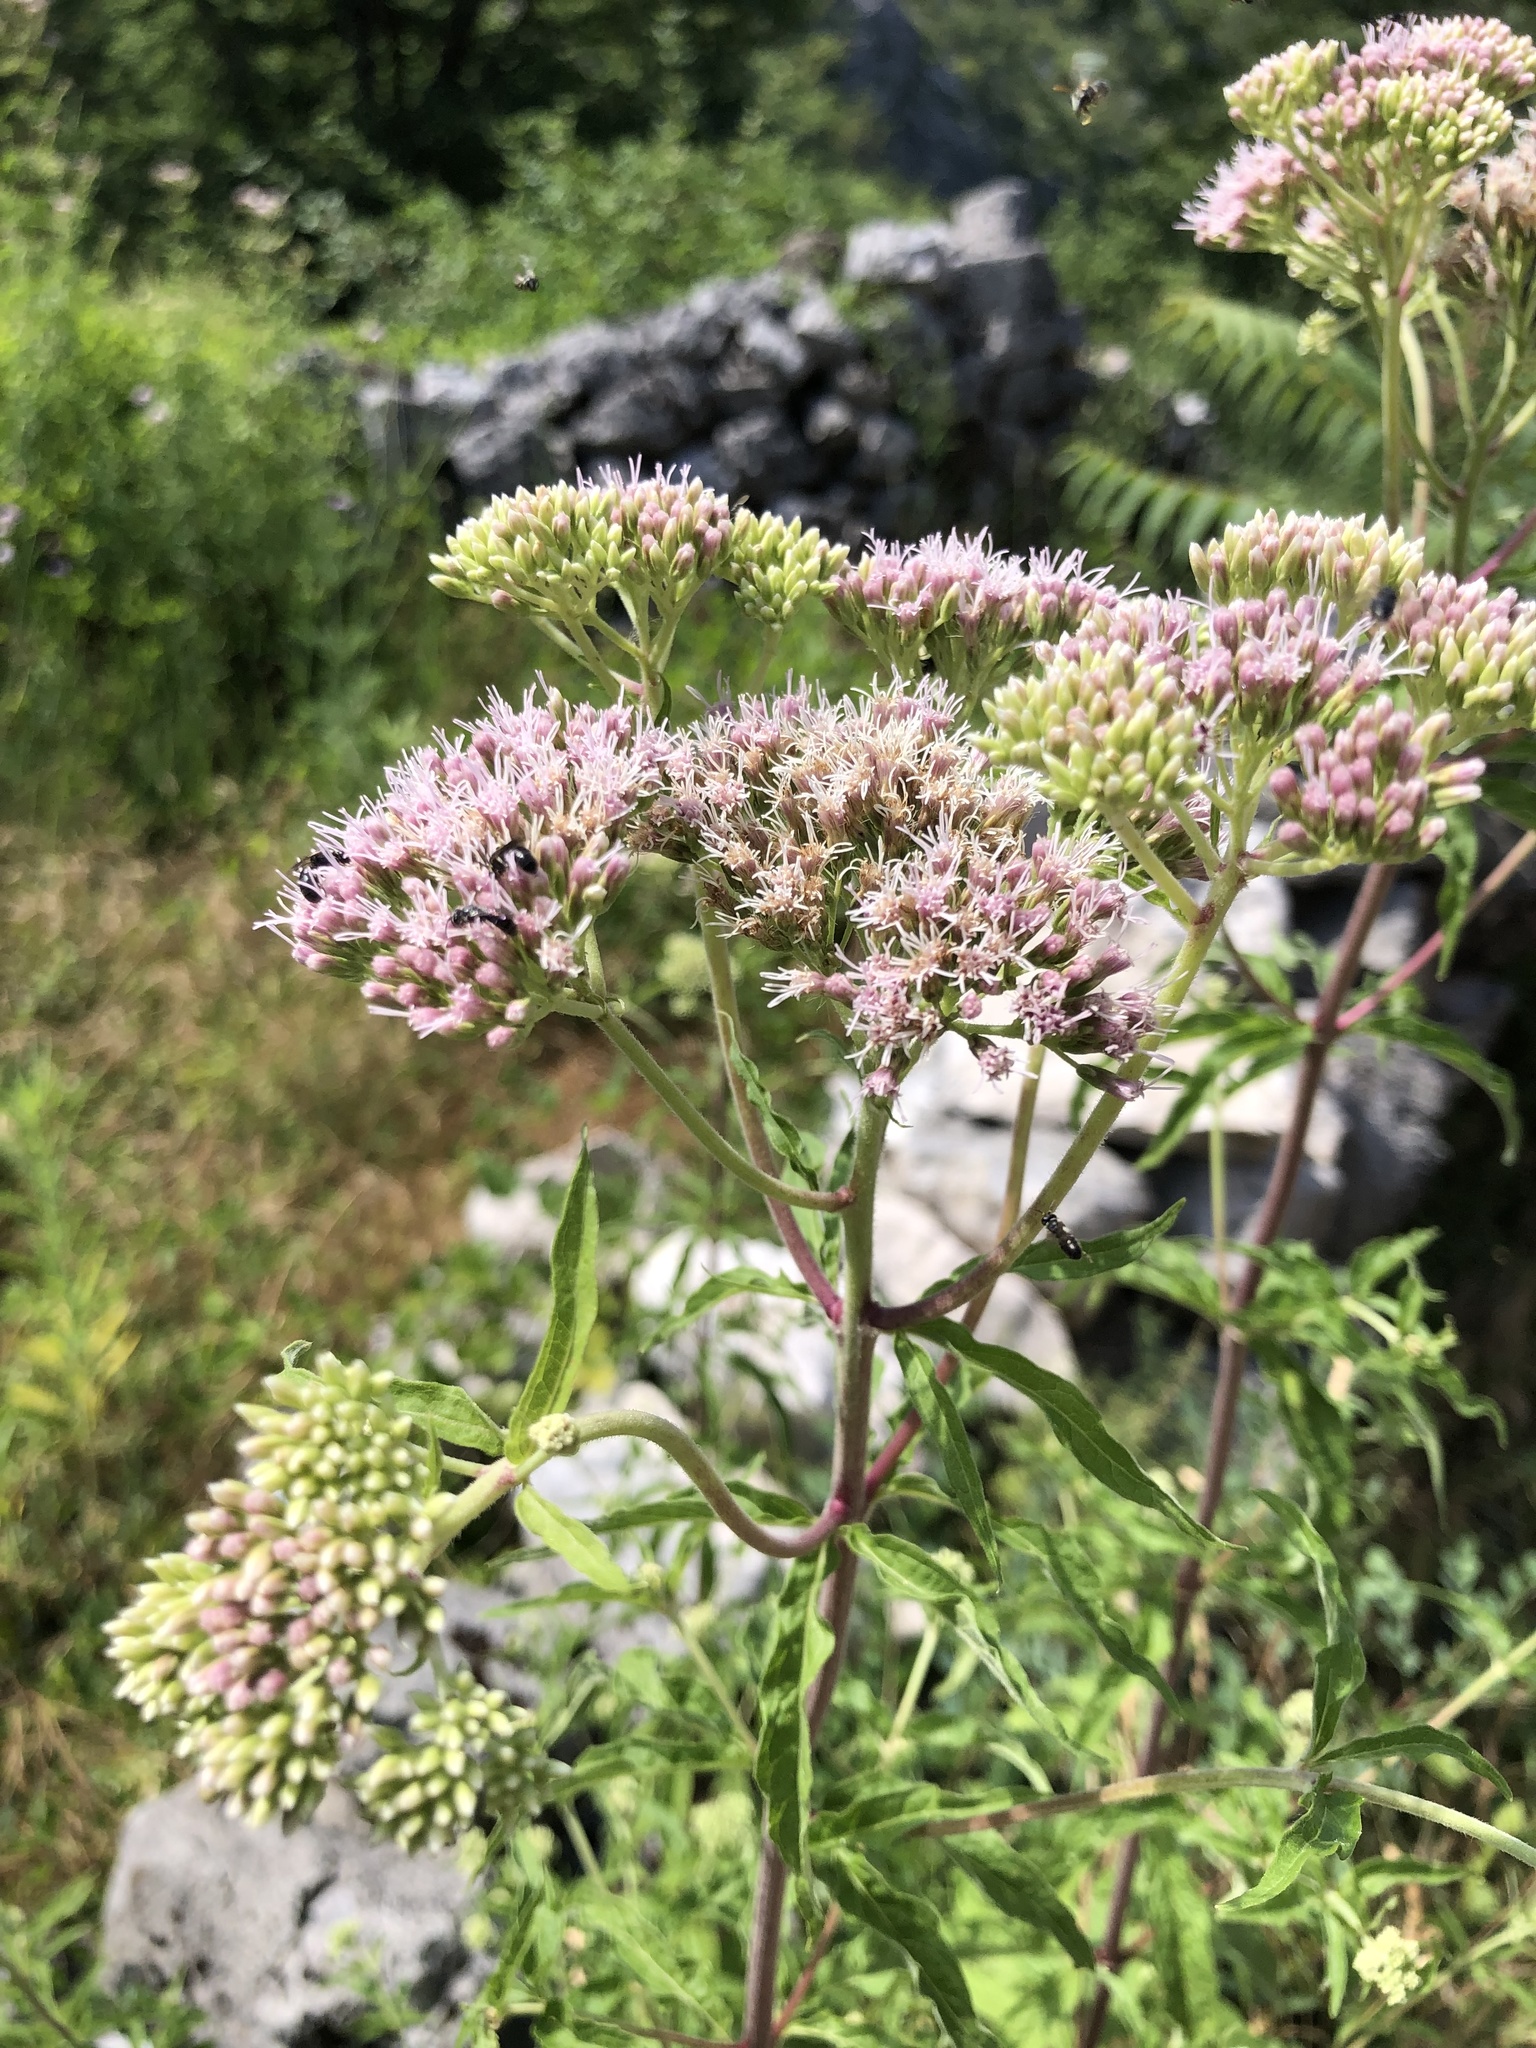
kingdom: Plantae
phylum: Tracheophyta
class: Magnoliopsida
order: Asterales
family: Asteraceae
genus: Eupatorium
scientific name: Eupatorium cannabinum
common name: Hemp-agrimony
